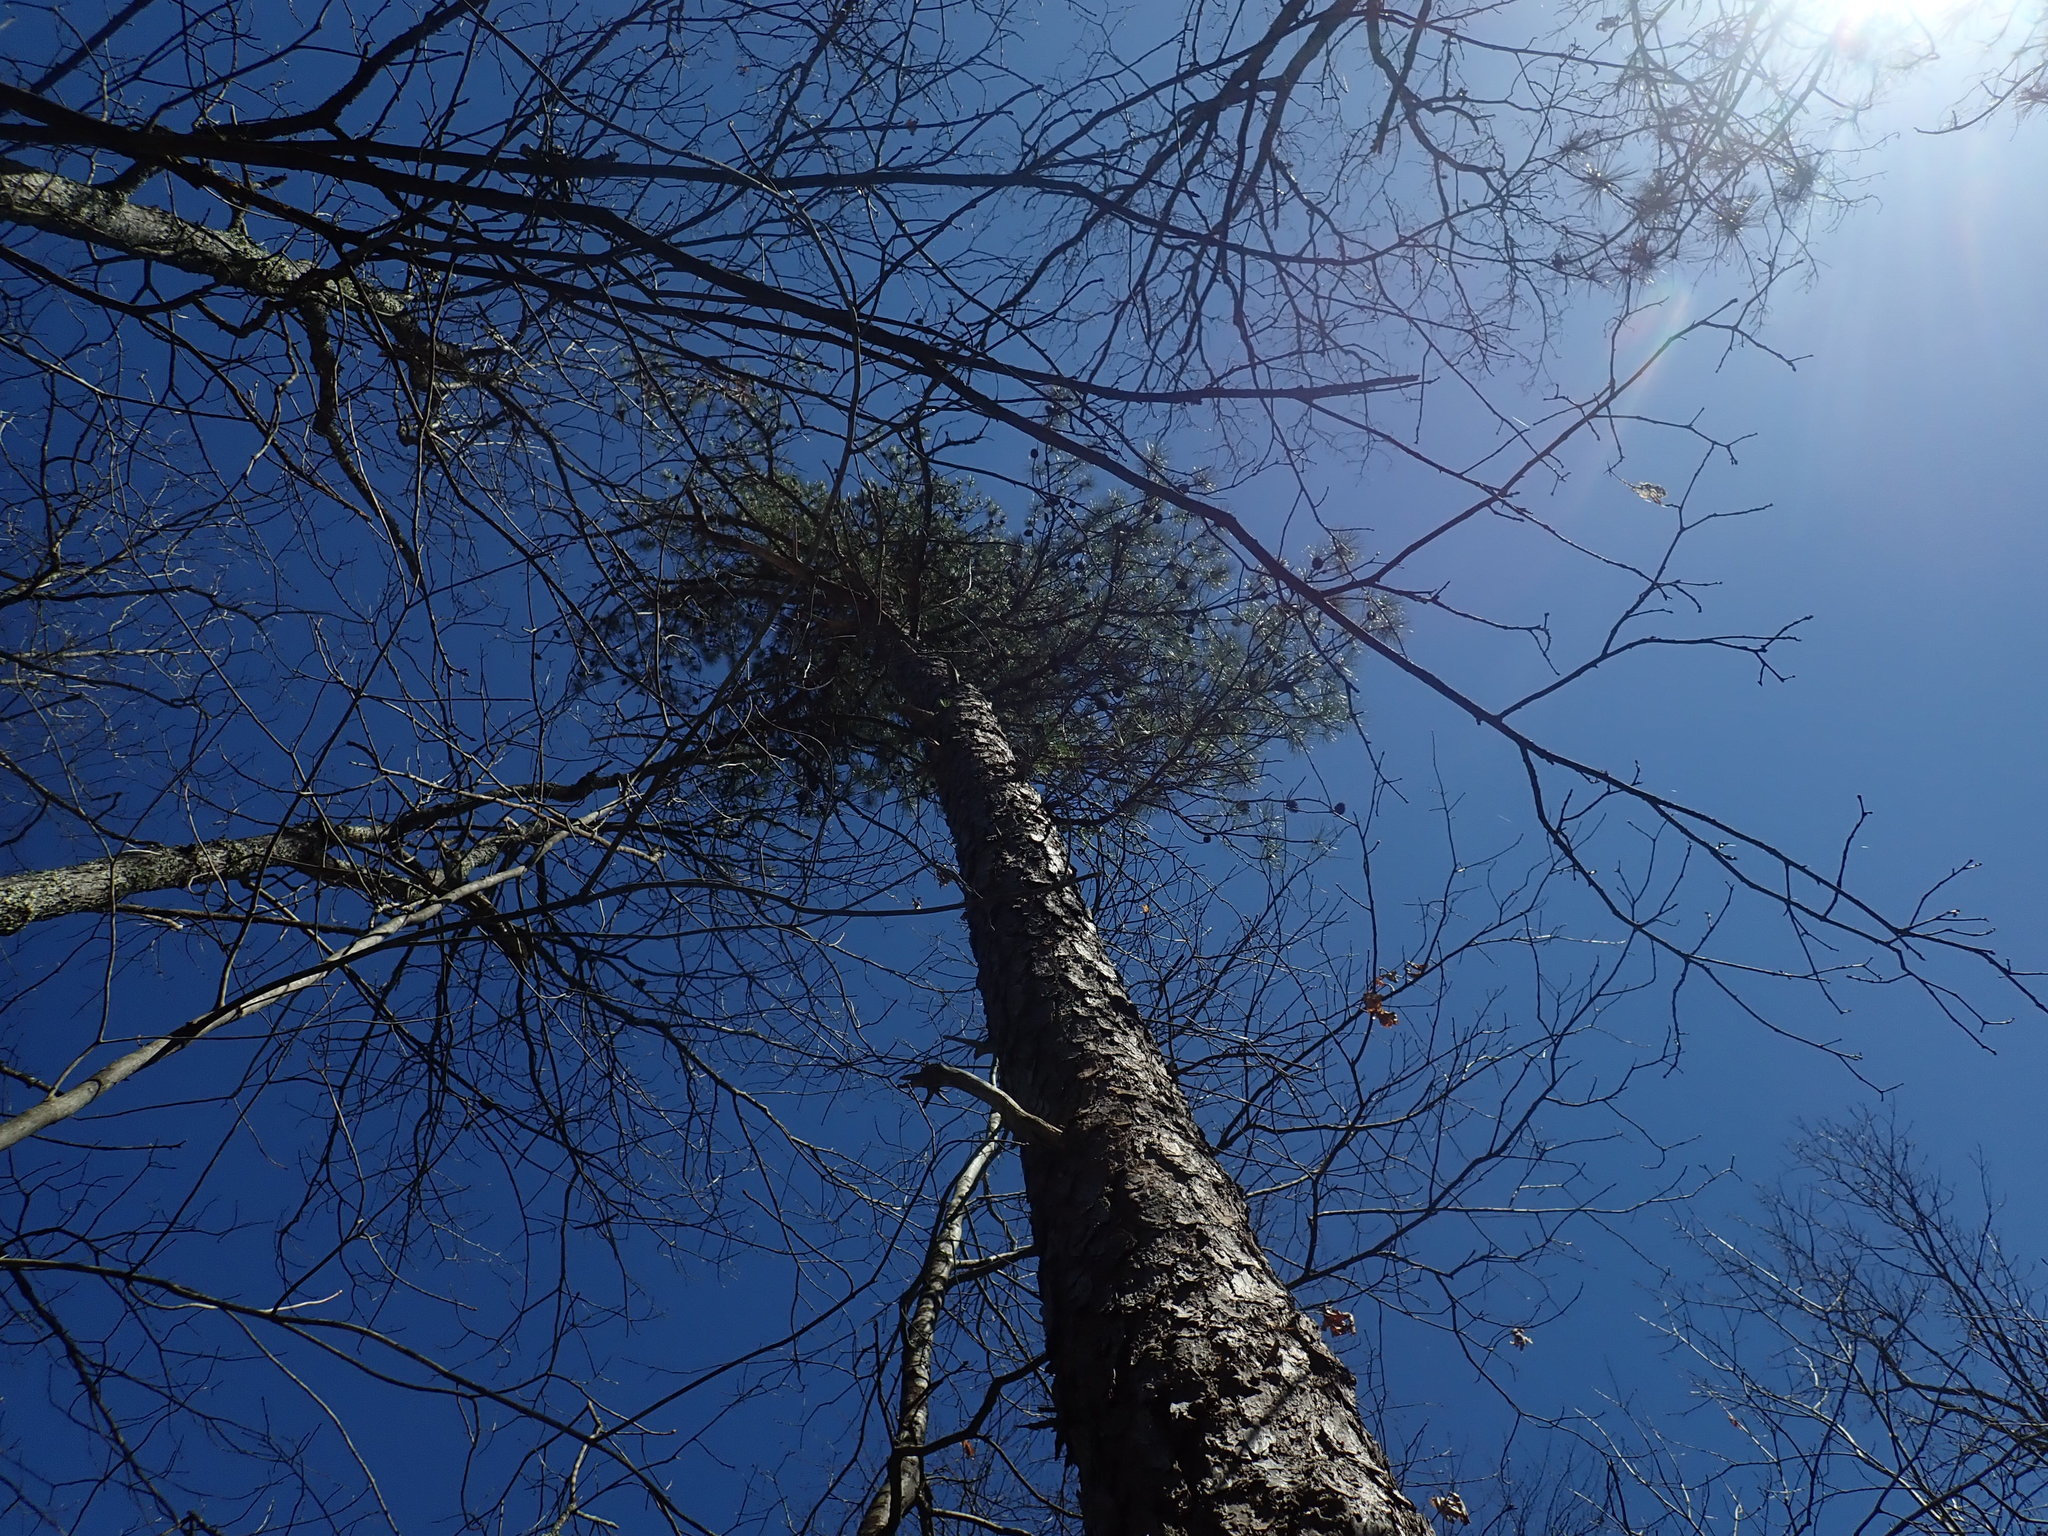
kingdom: Plantae
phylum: Tracheophyta
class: Pinopsida
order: Pinales
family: Pinaceae
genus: Pinus
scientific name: Pinus rigida
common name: Pitch pine
